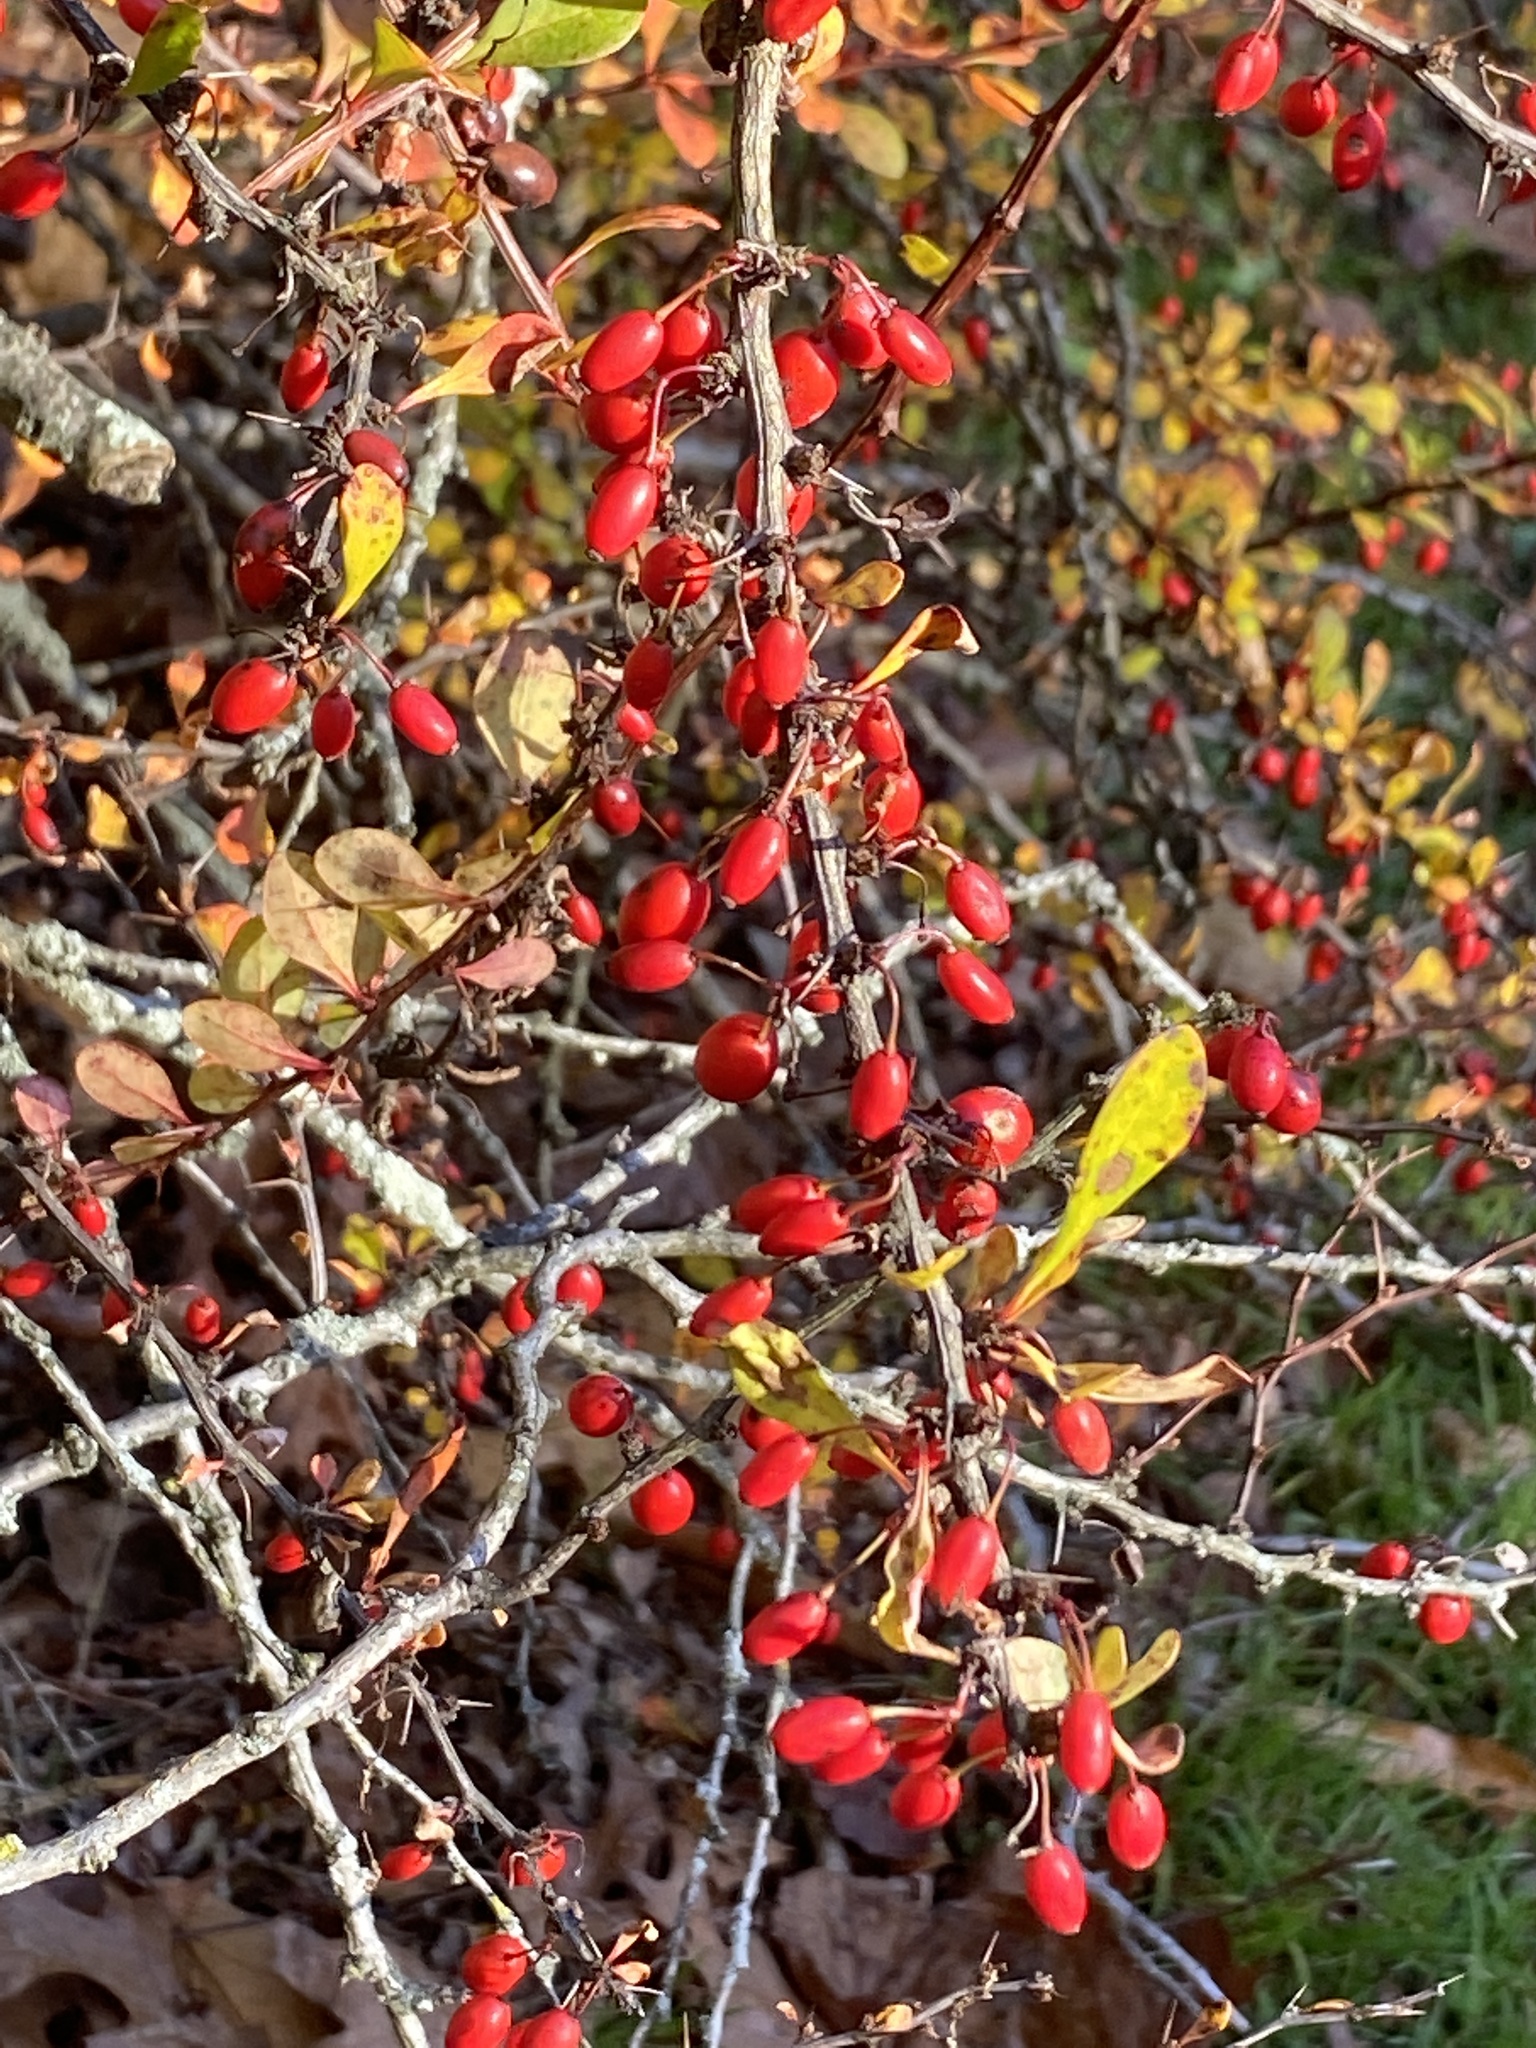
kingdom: Plantae
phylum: Tracheophyta
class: Magnoliopsida
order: Ranunculales
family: Berberidaceae
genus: Berberis
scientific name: Berberis thunbergii
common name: Japanese barberry
